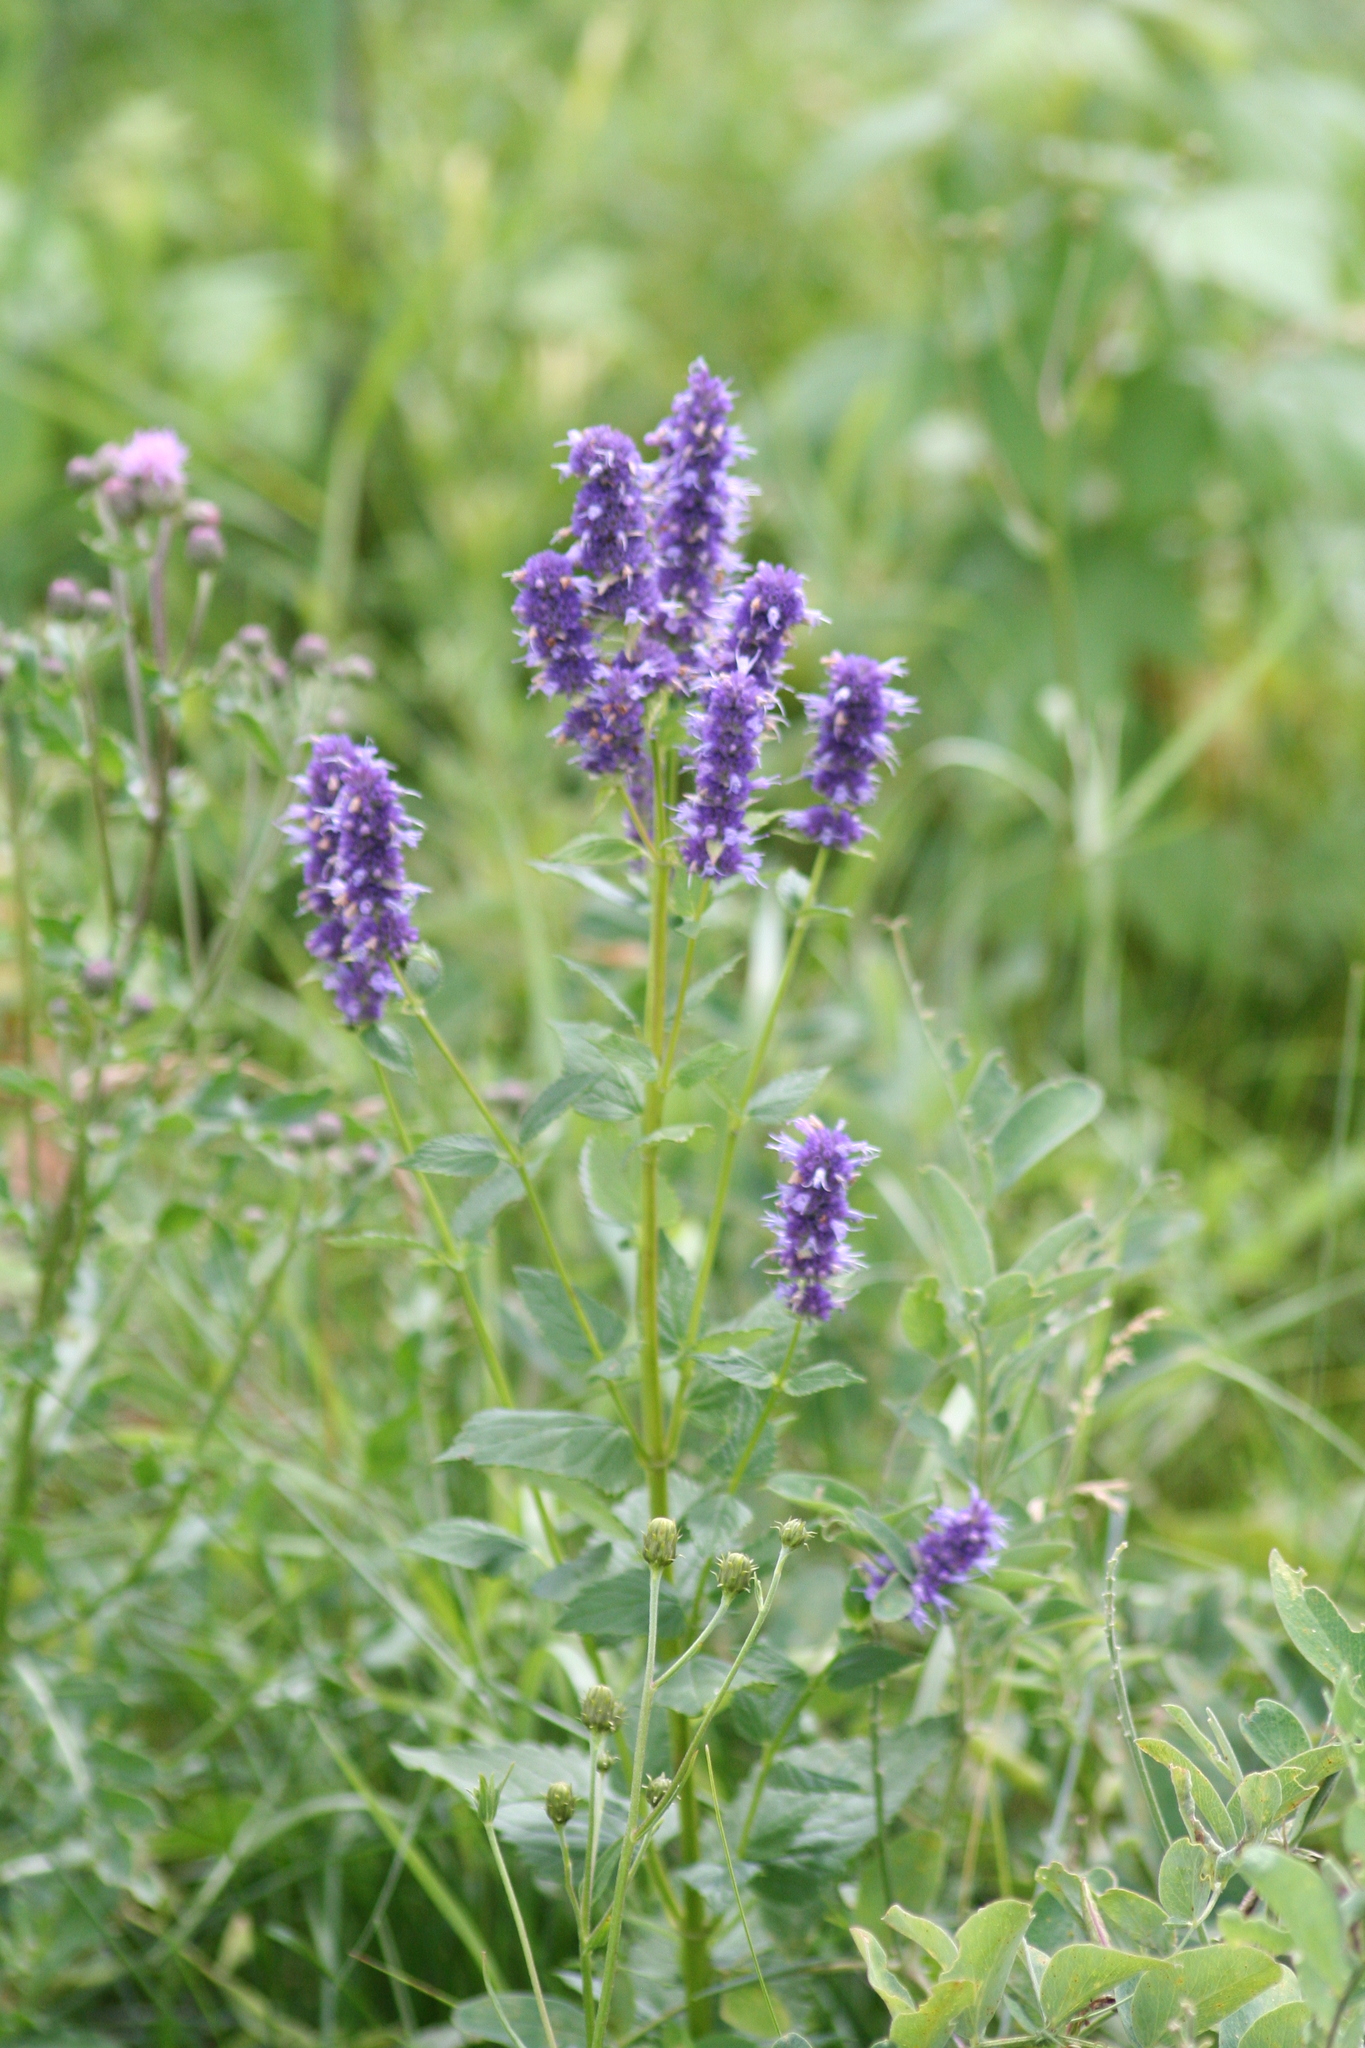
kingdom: Plantae
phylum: Tracheophyta
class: Magnoliopsida
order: Lamiales
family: Lamiaceae
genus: Agastache
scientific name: Agastache foeniculum
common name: Anise hyssop
